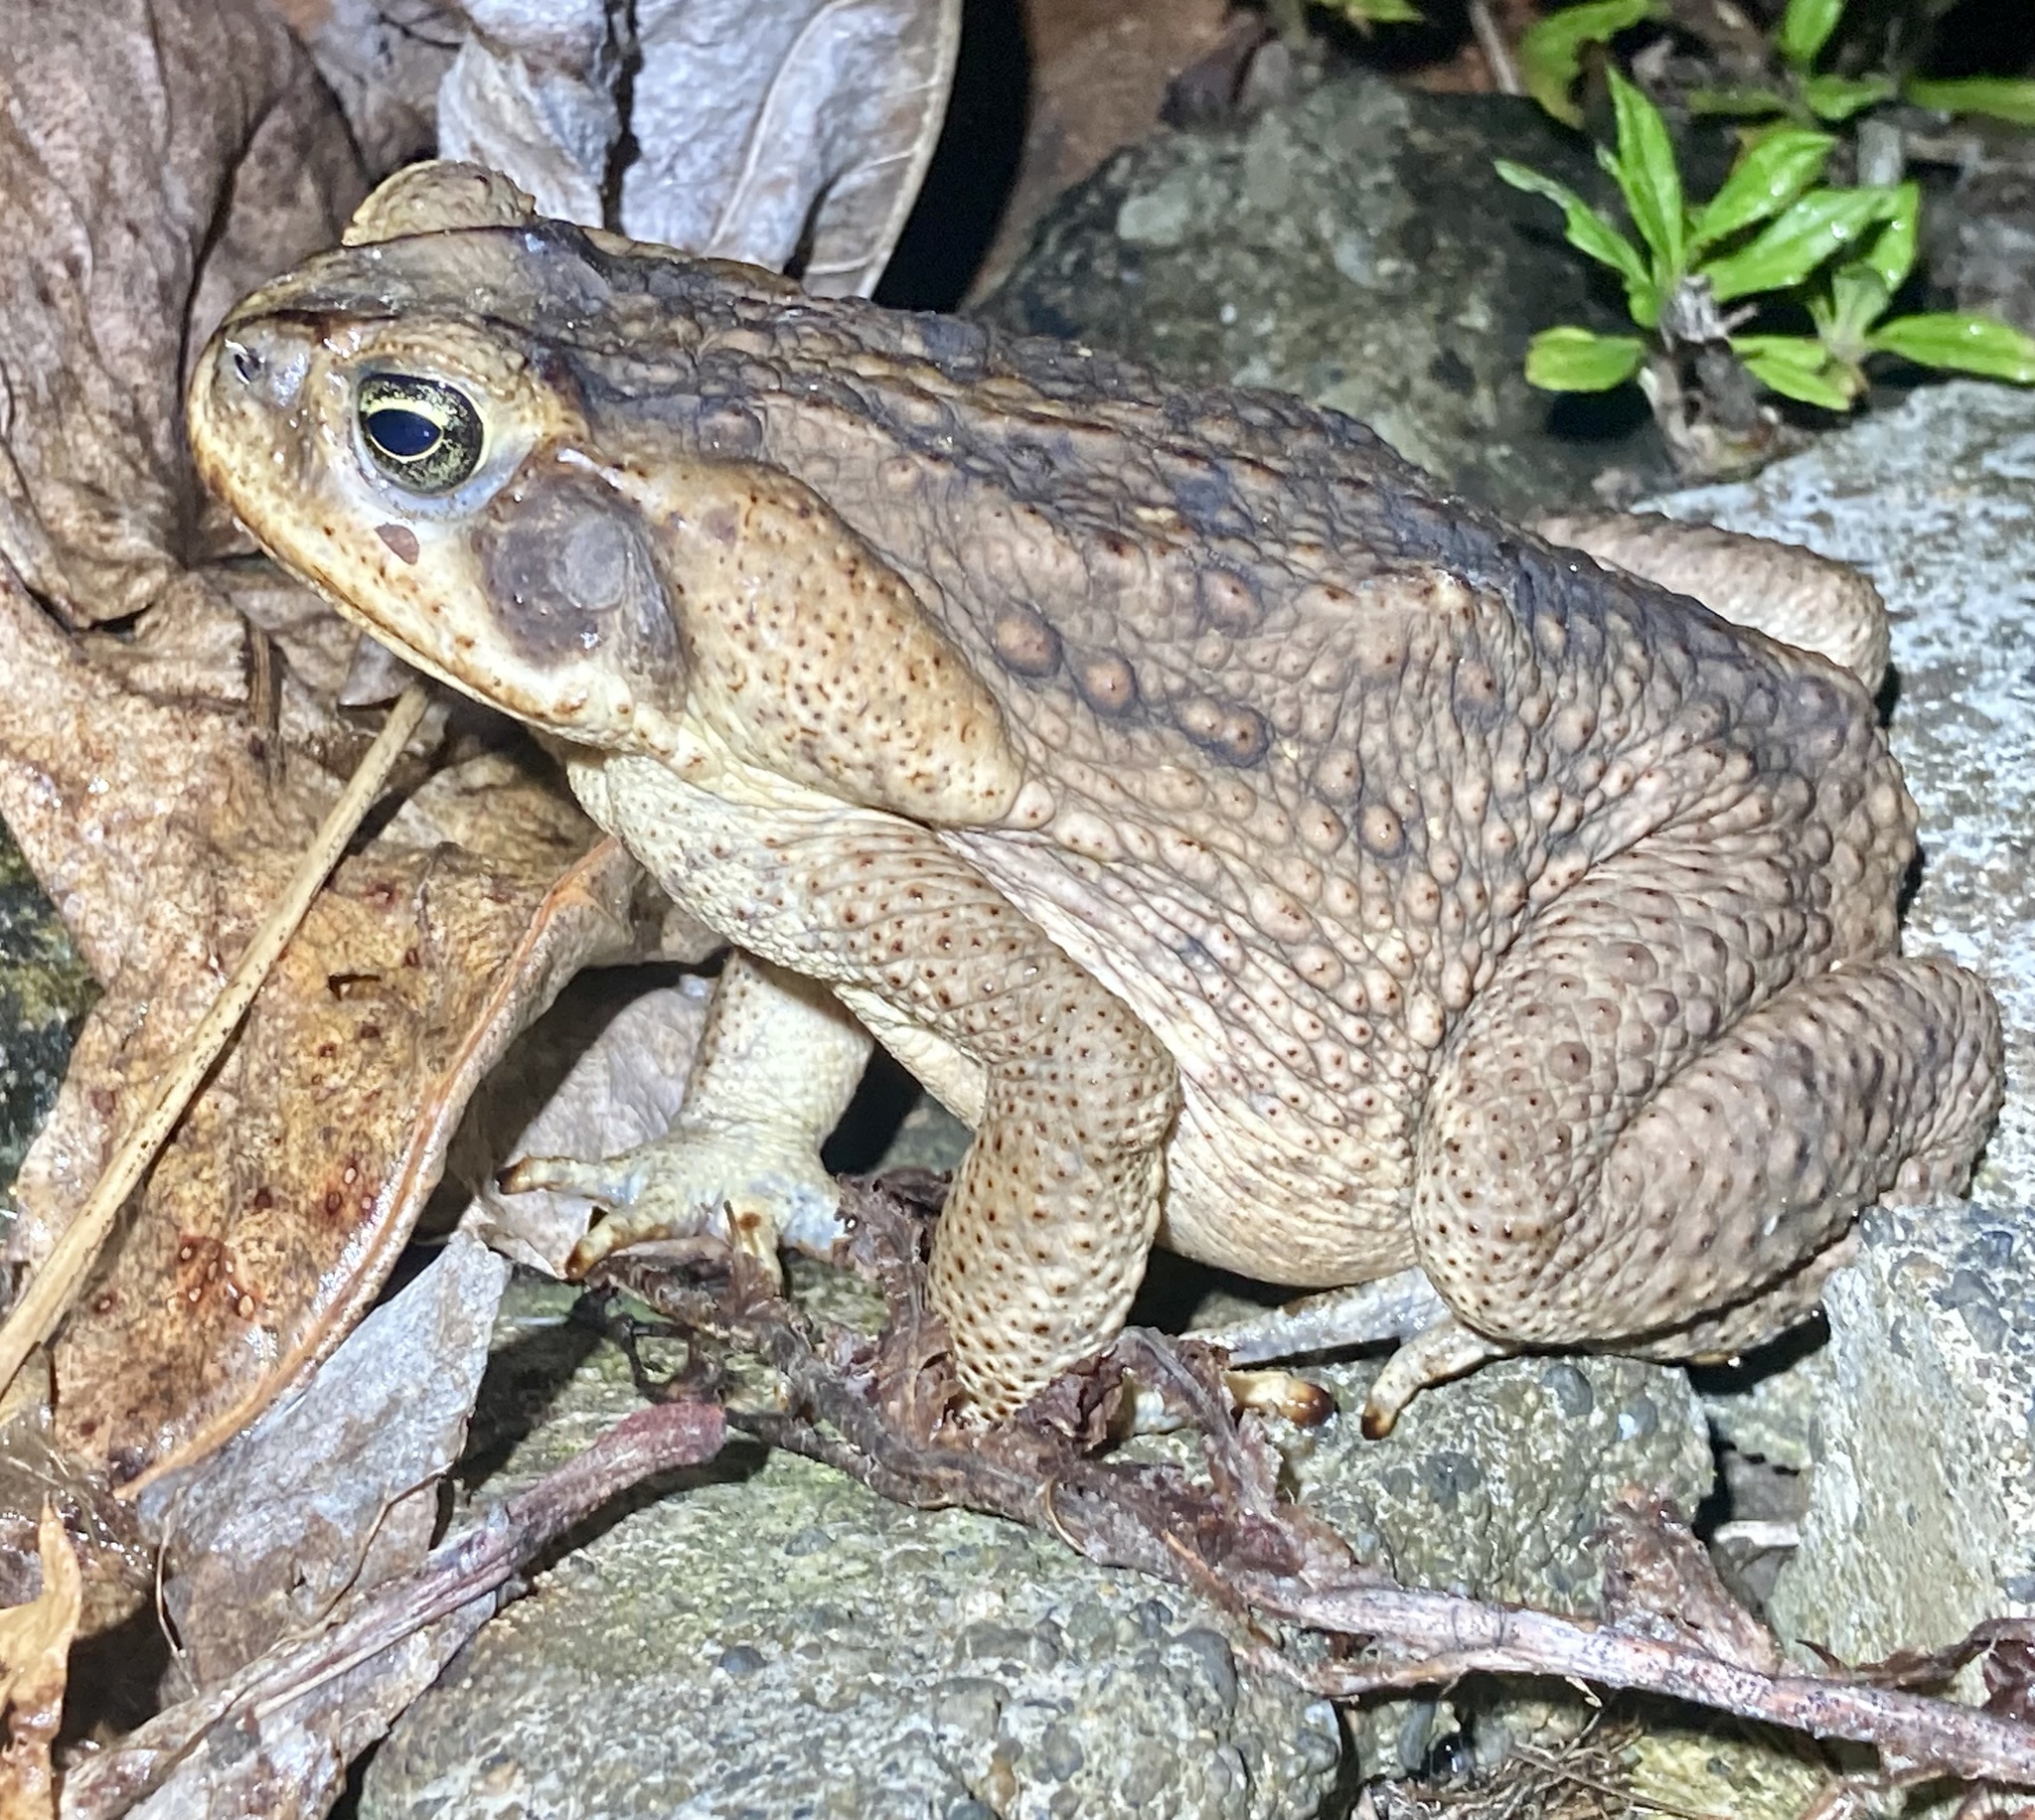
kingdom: Animalia
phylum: Chordata
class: Amphibia
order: Anura
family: Bufonidae
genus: Rhinella
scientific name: Rhinella horribilis
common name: Mesoamerican cane toad
